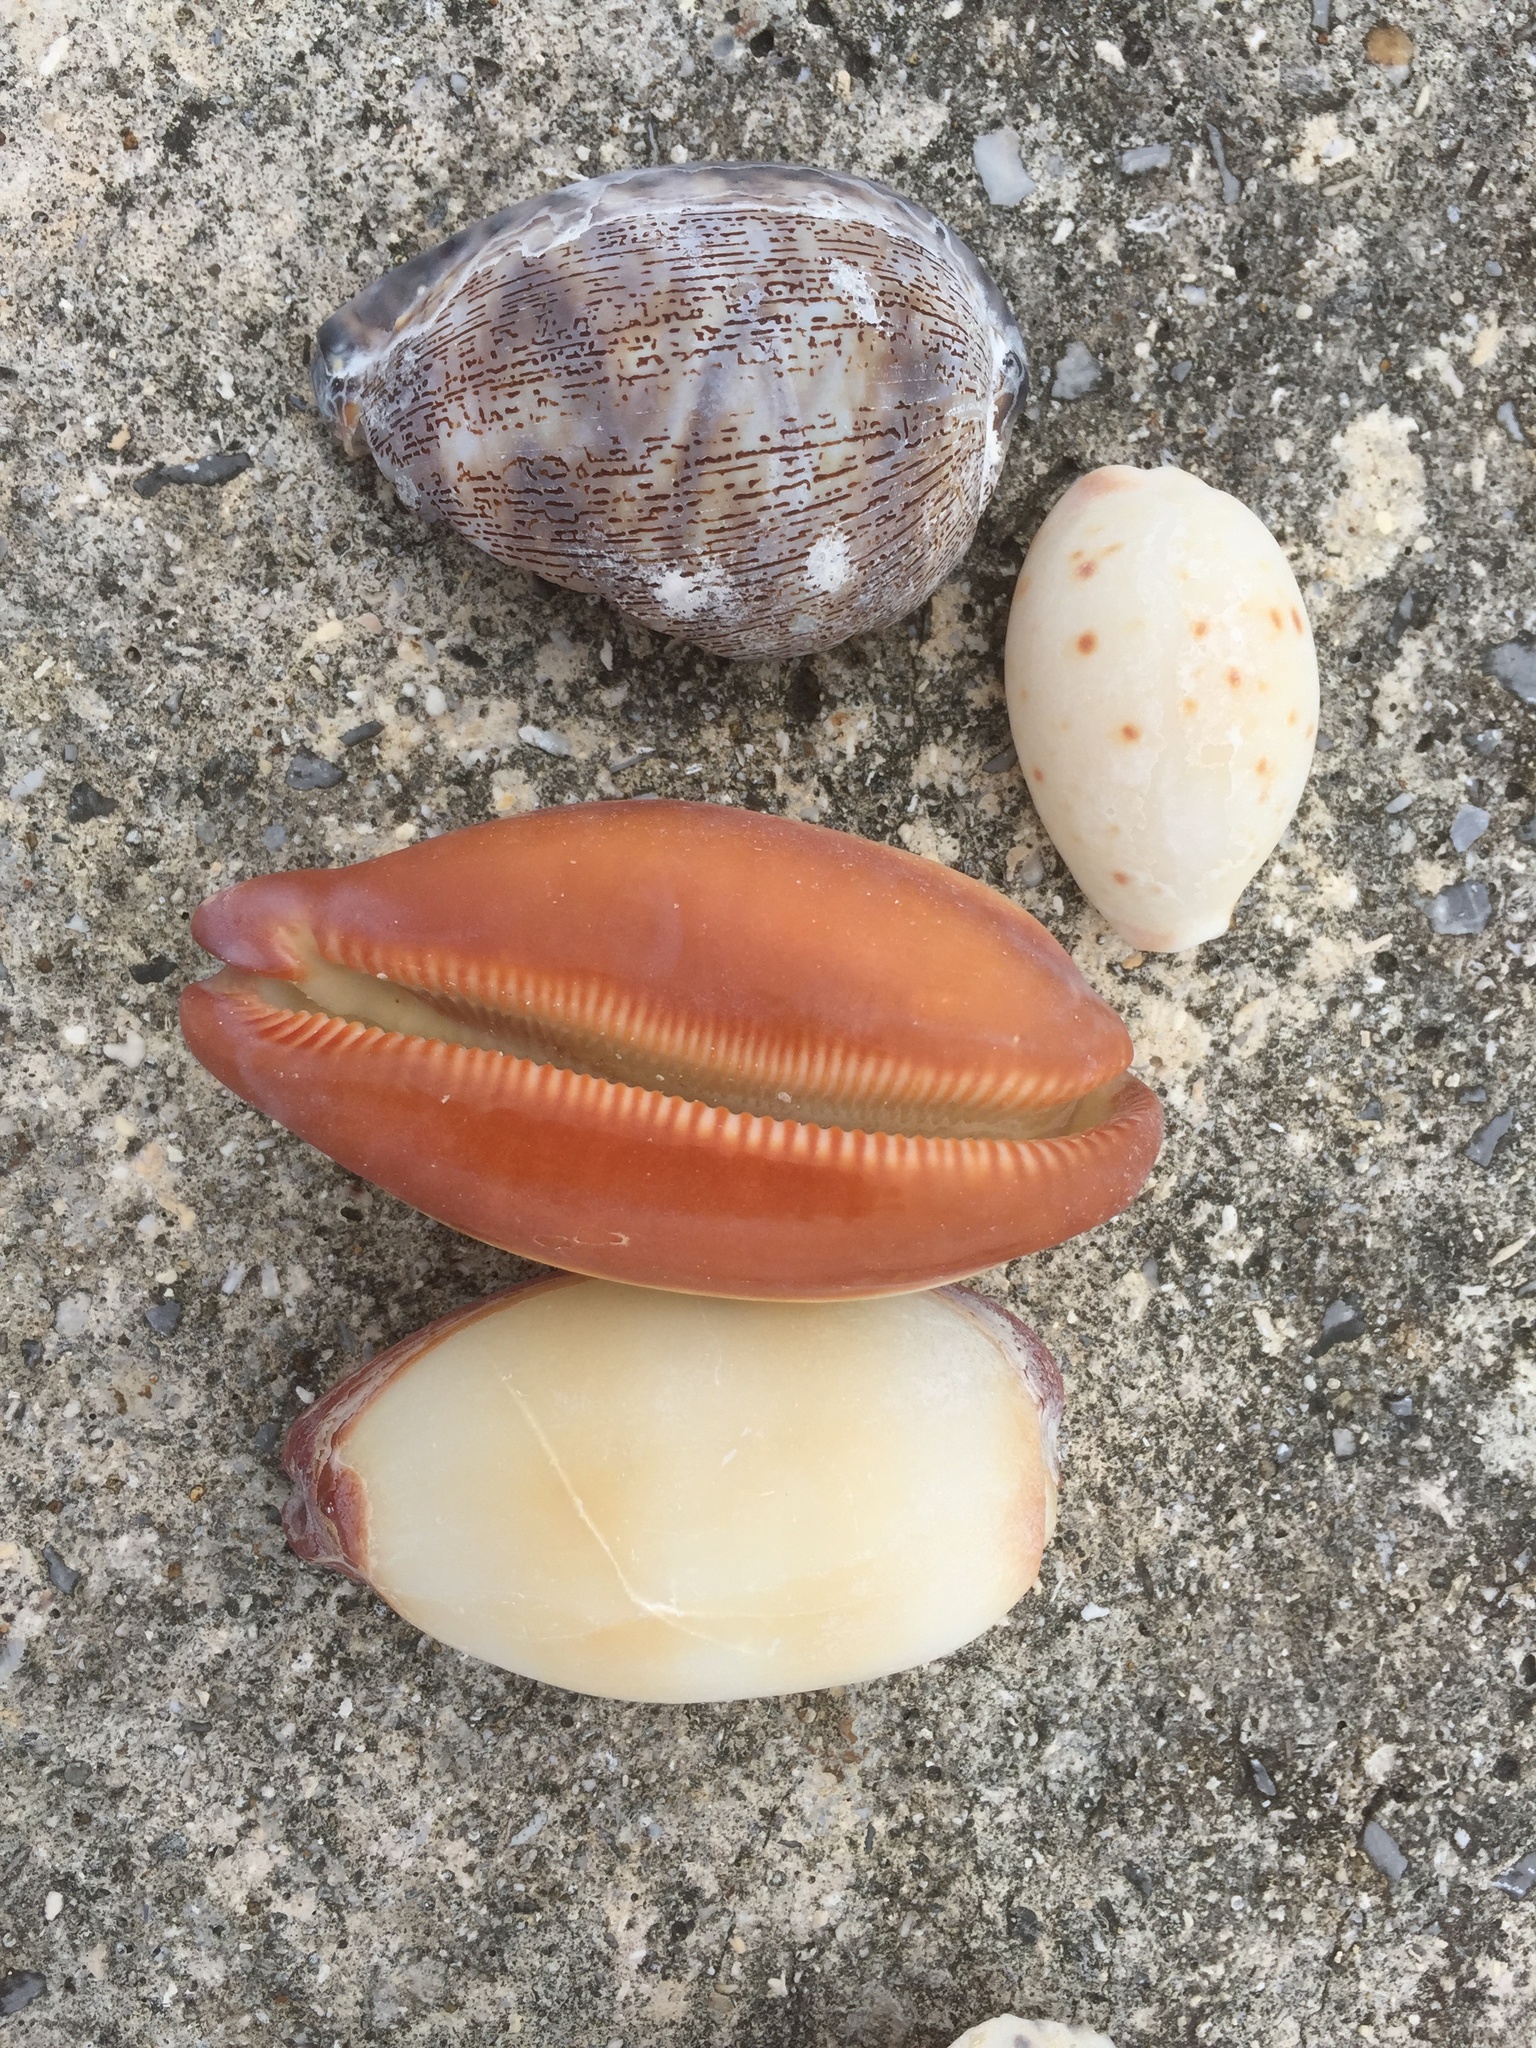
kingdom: Animalia
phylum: Mollusca
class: Gastropoda
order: Littorinimorpha
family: Cypraeidae
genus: Talparia
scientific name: Talparia talpa
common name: Mole cowrie
